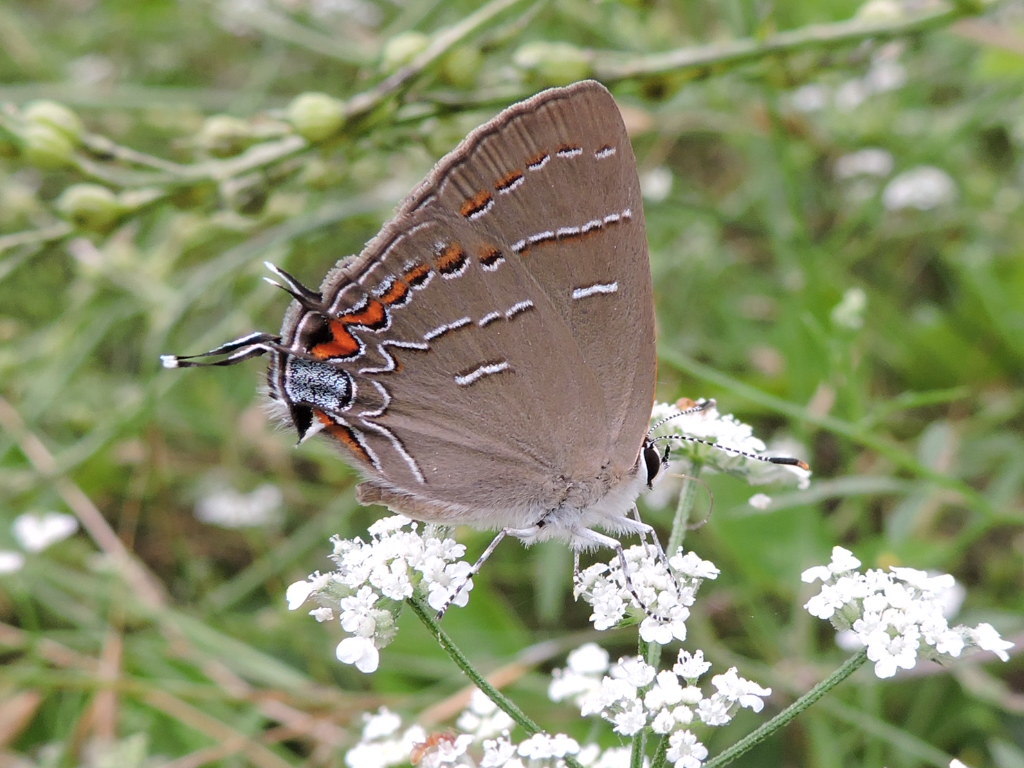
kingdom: Animalia
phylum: Arthropoda
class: Insecta
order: Lepidoptera
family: Lycaenidae
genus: Phaeostrymon
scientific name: Phaeostrymon alcestis
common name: Soapberry hairstreak
